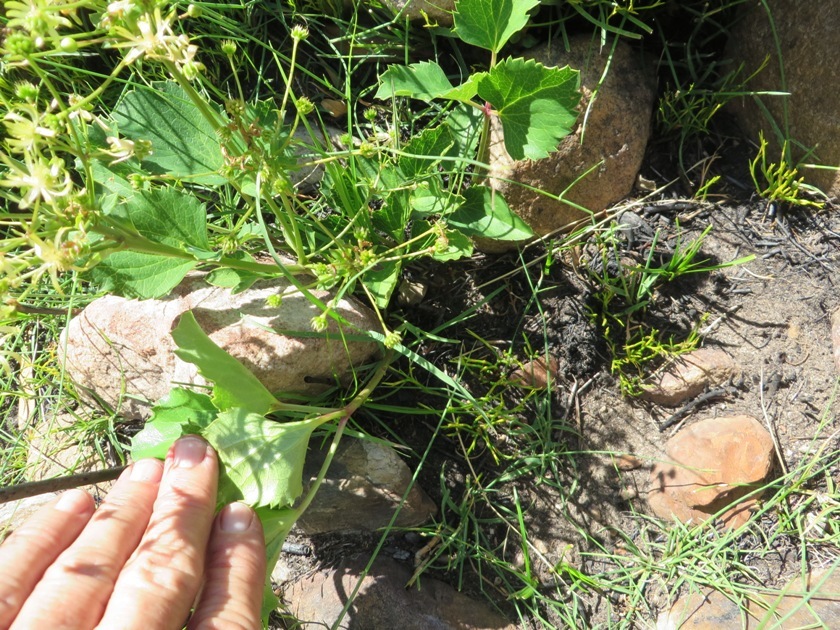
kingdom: Plantae
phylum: Tracheophyta
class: Magnoliopsida
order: Ranunculales
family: Ranunculaceae
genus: Knowltonia
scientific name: Knowltonia vesicatoria
